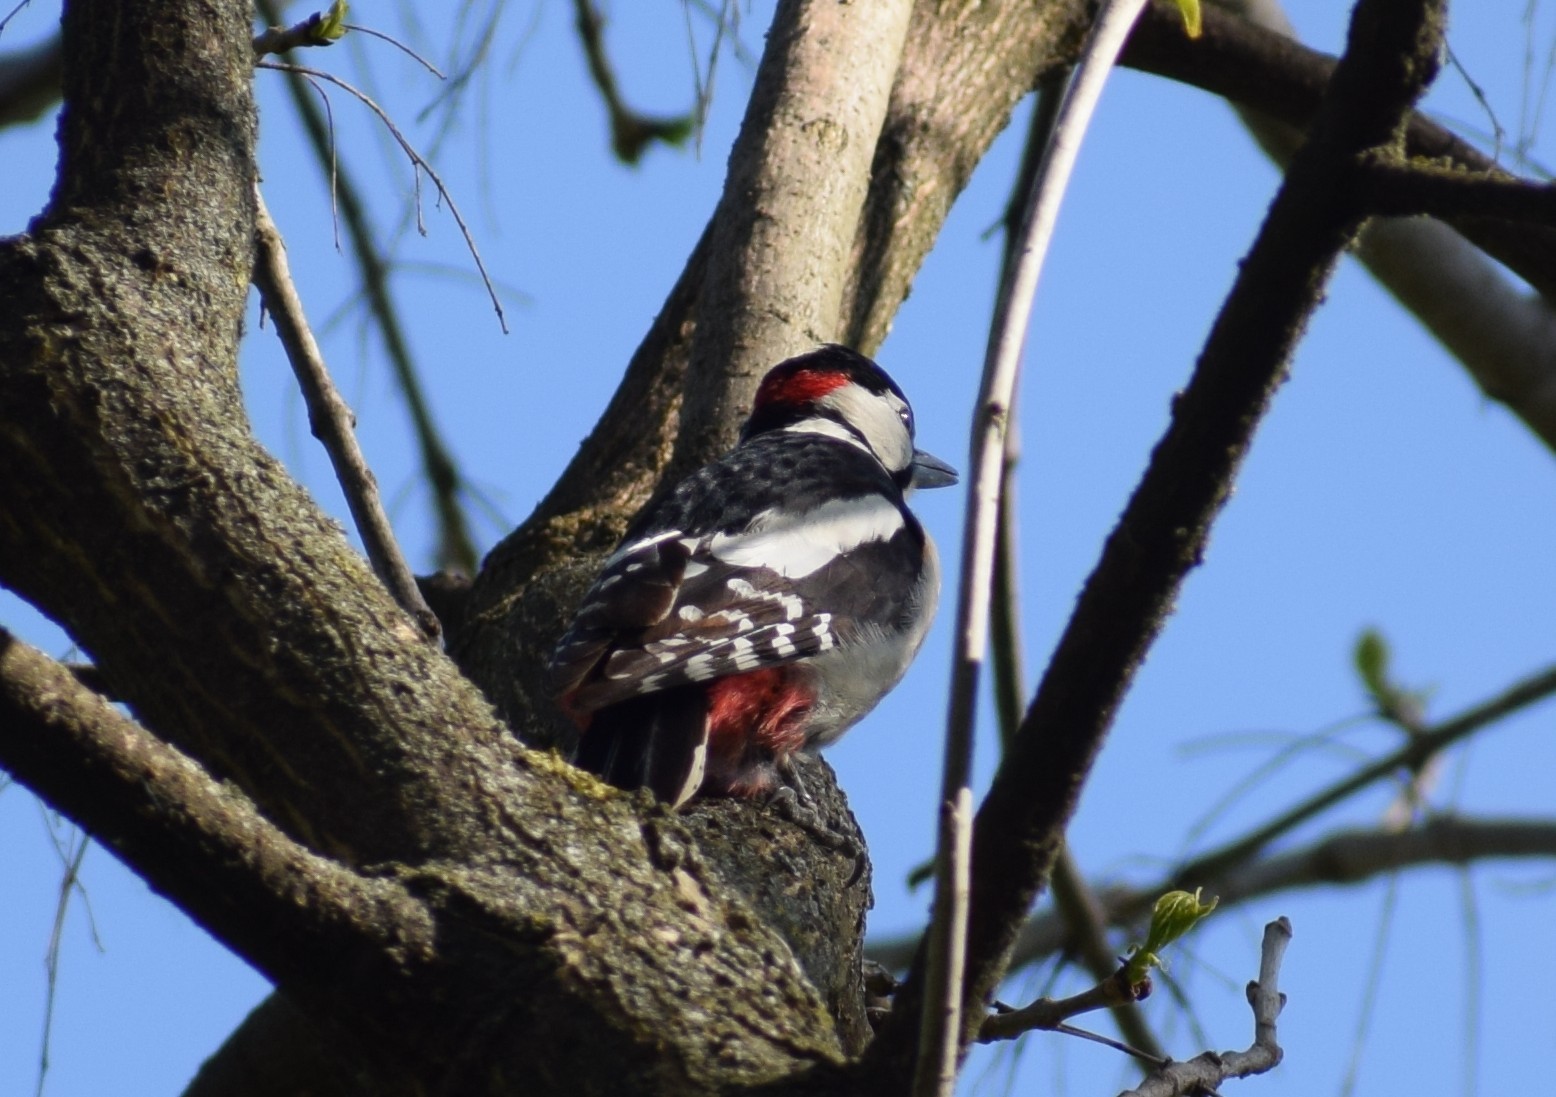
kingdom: Animalia
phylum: Chordata
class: Aves
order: Piciformes
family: Picidae
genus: Dendrocopos
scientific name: Dendrocopos major
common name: Great spotted woodpecker
